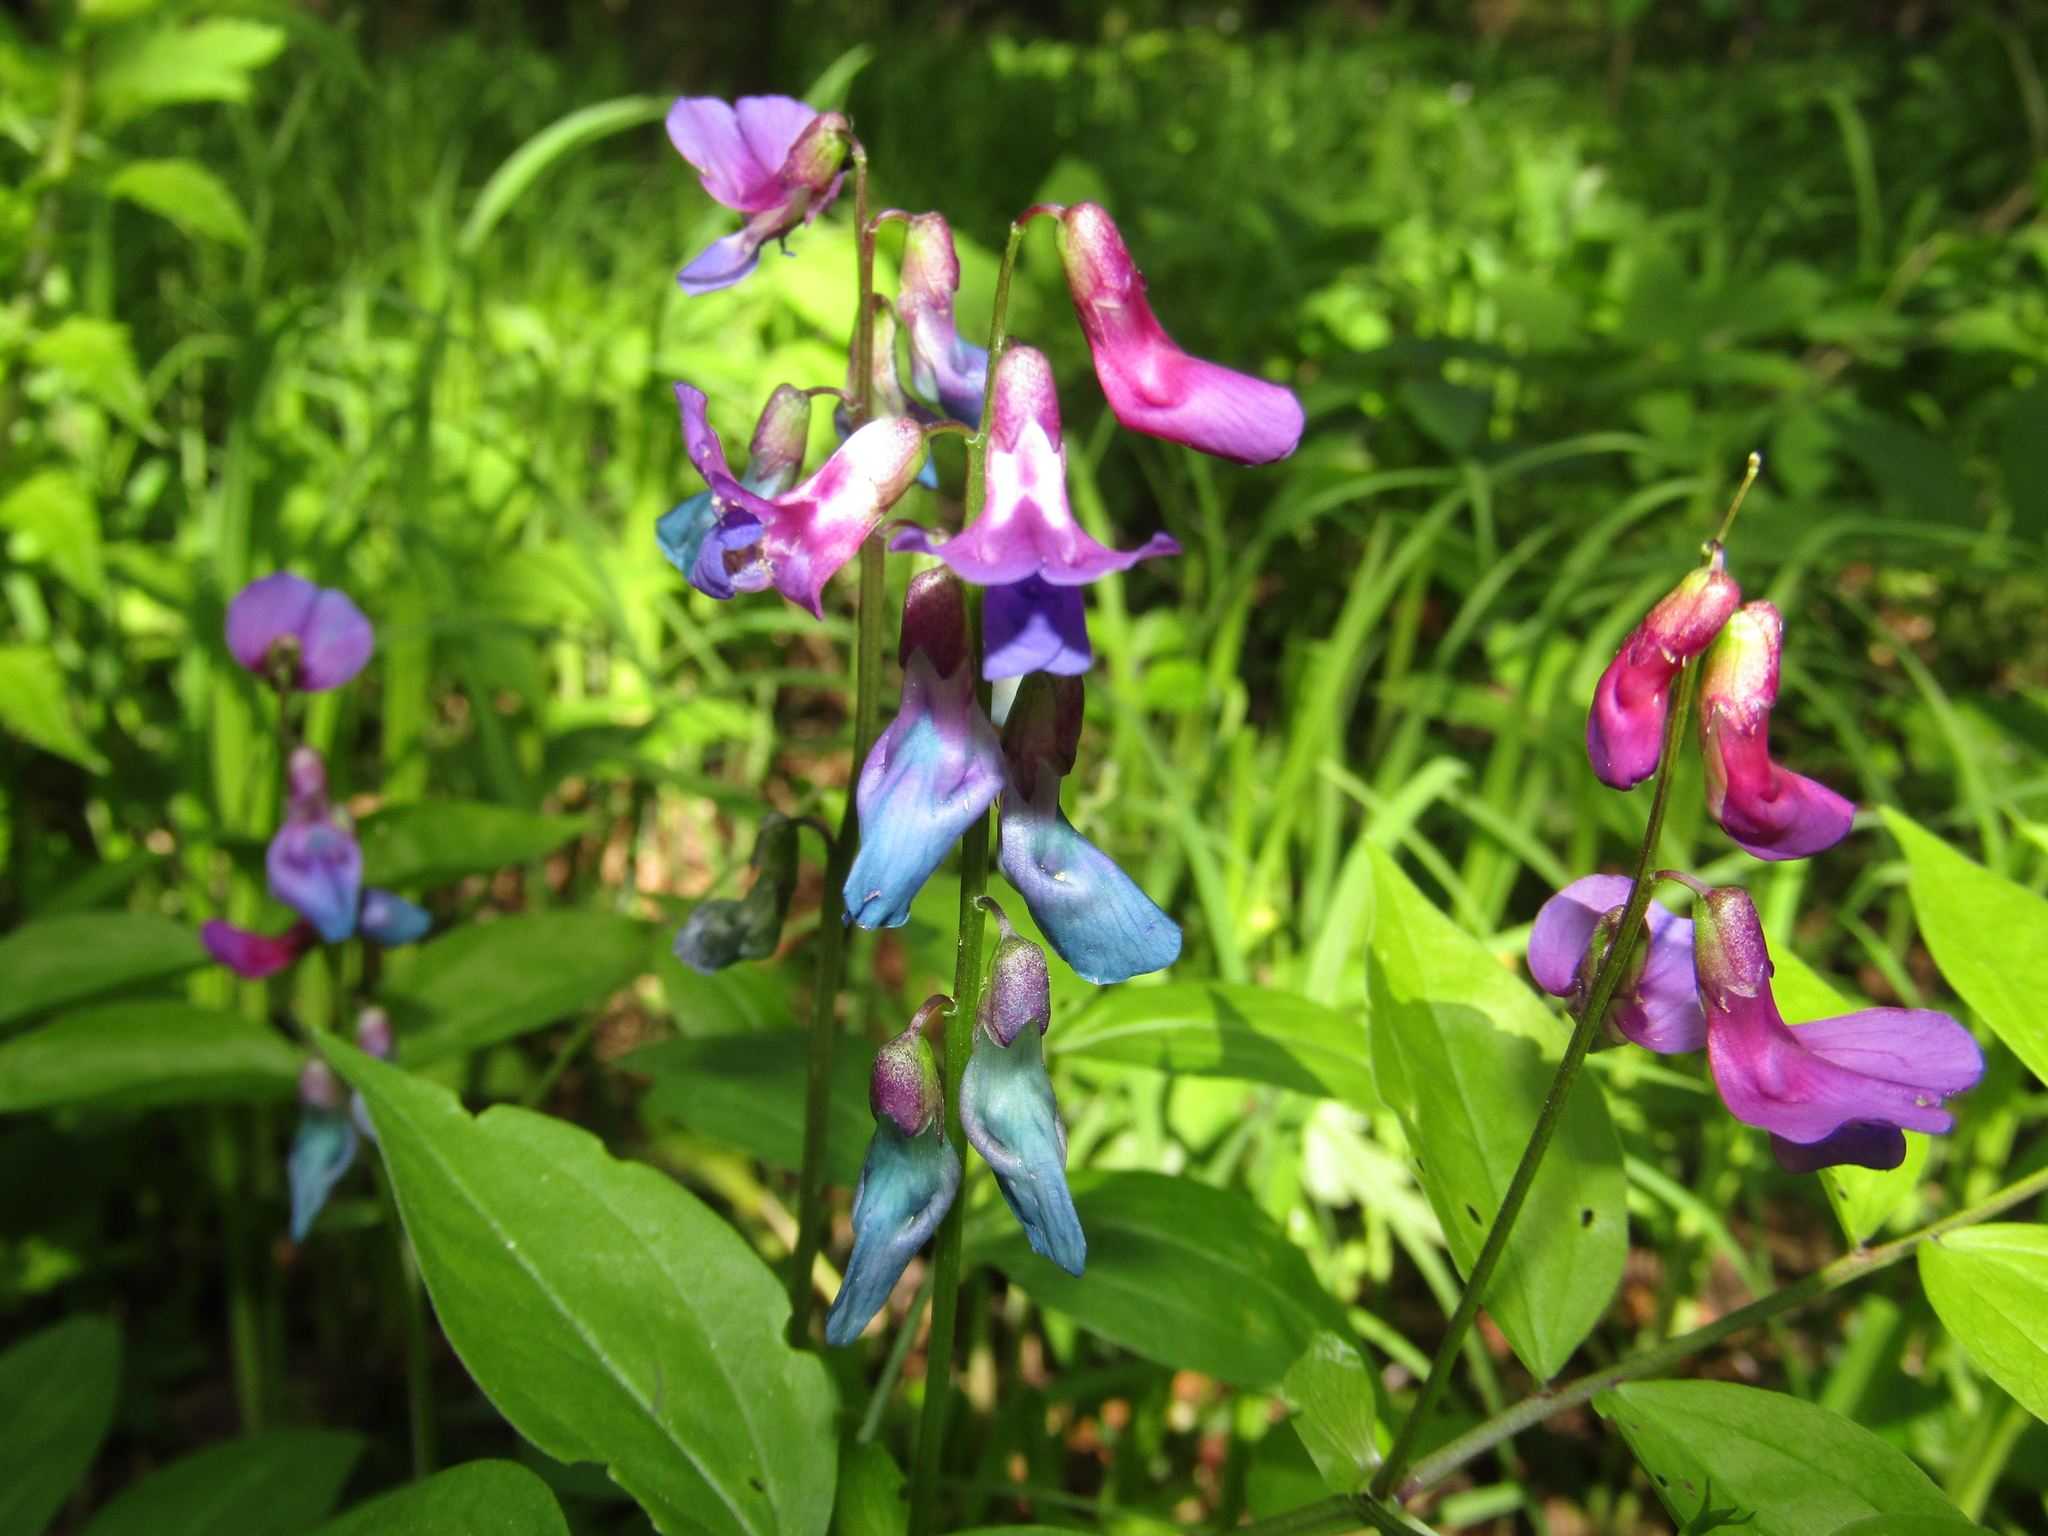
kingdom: Plantae
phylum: Tracheophyta
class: Magnoliopsida
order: Fabales
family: Fabaceae
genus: Lathyrus
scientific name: Lathyrus vernus
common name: Spring pea
